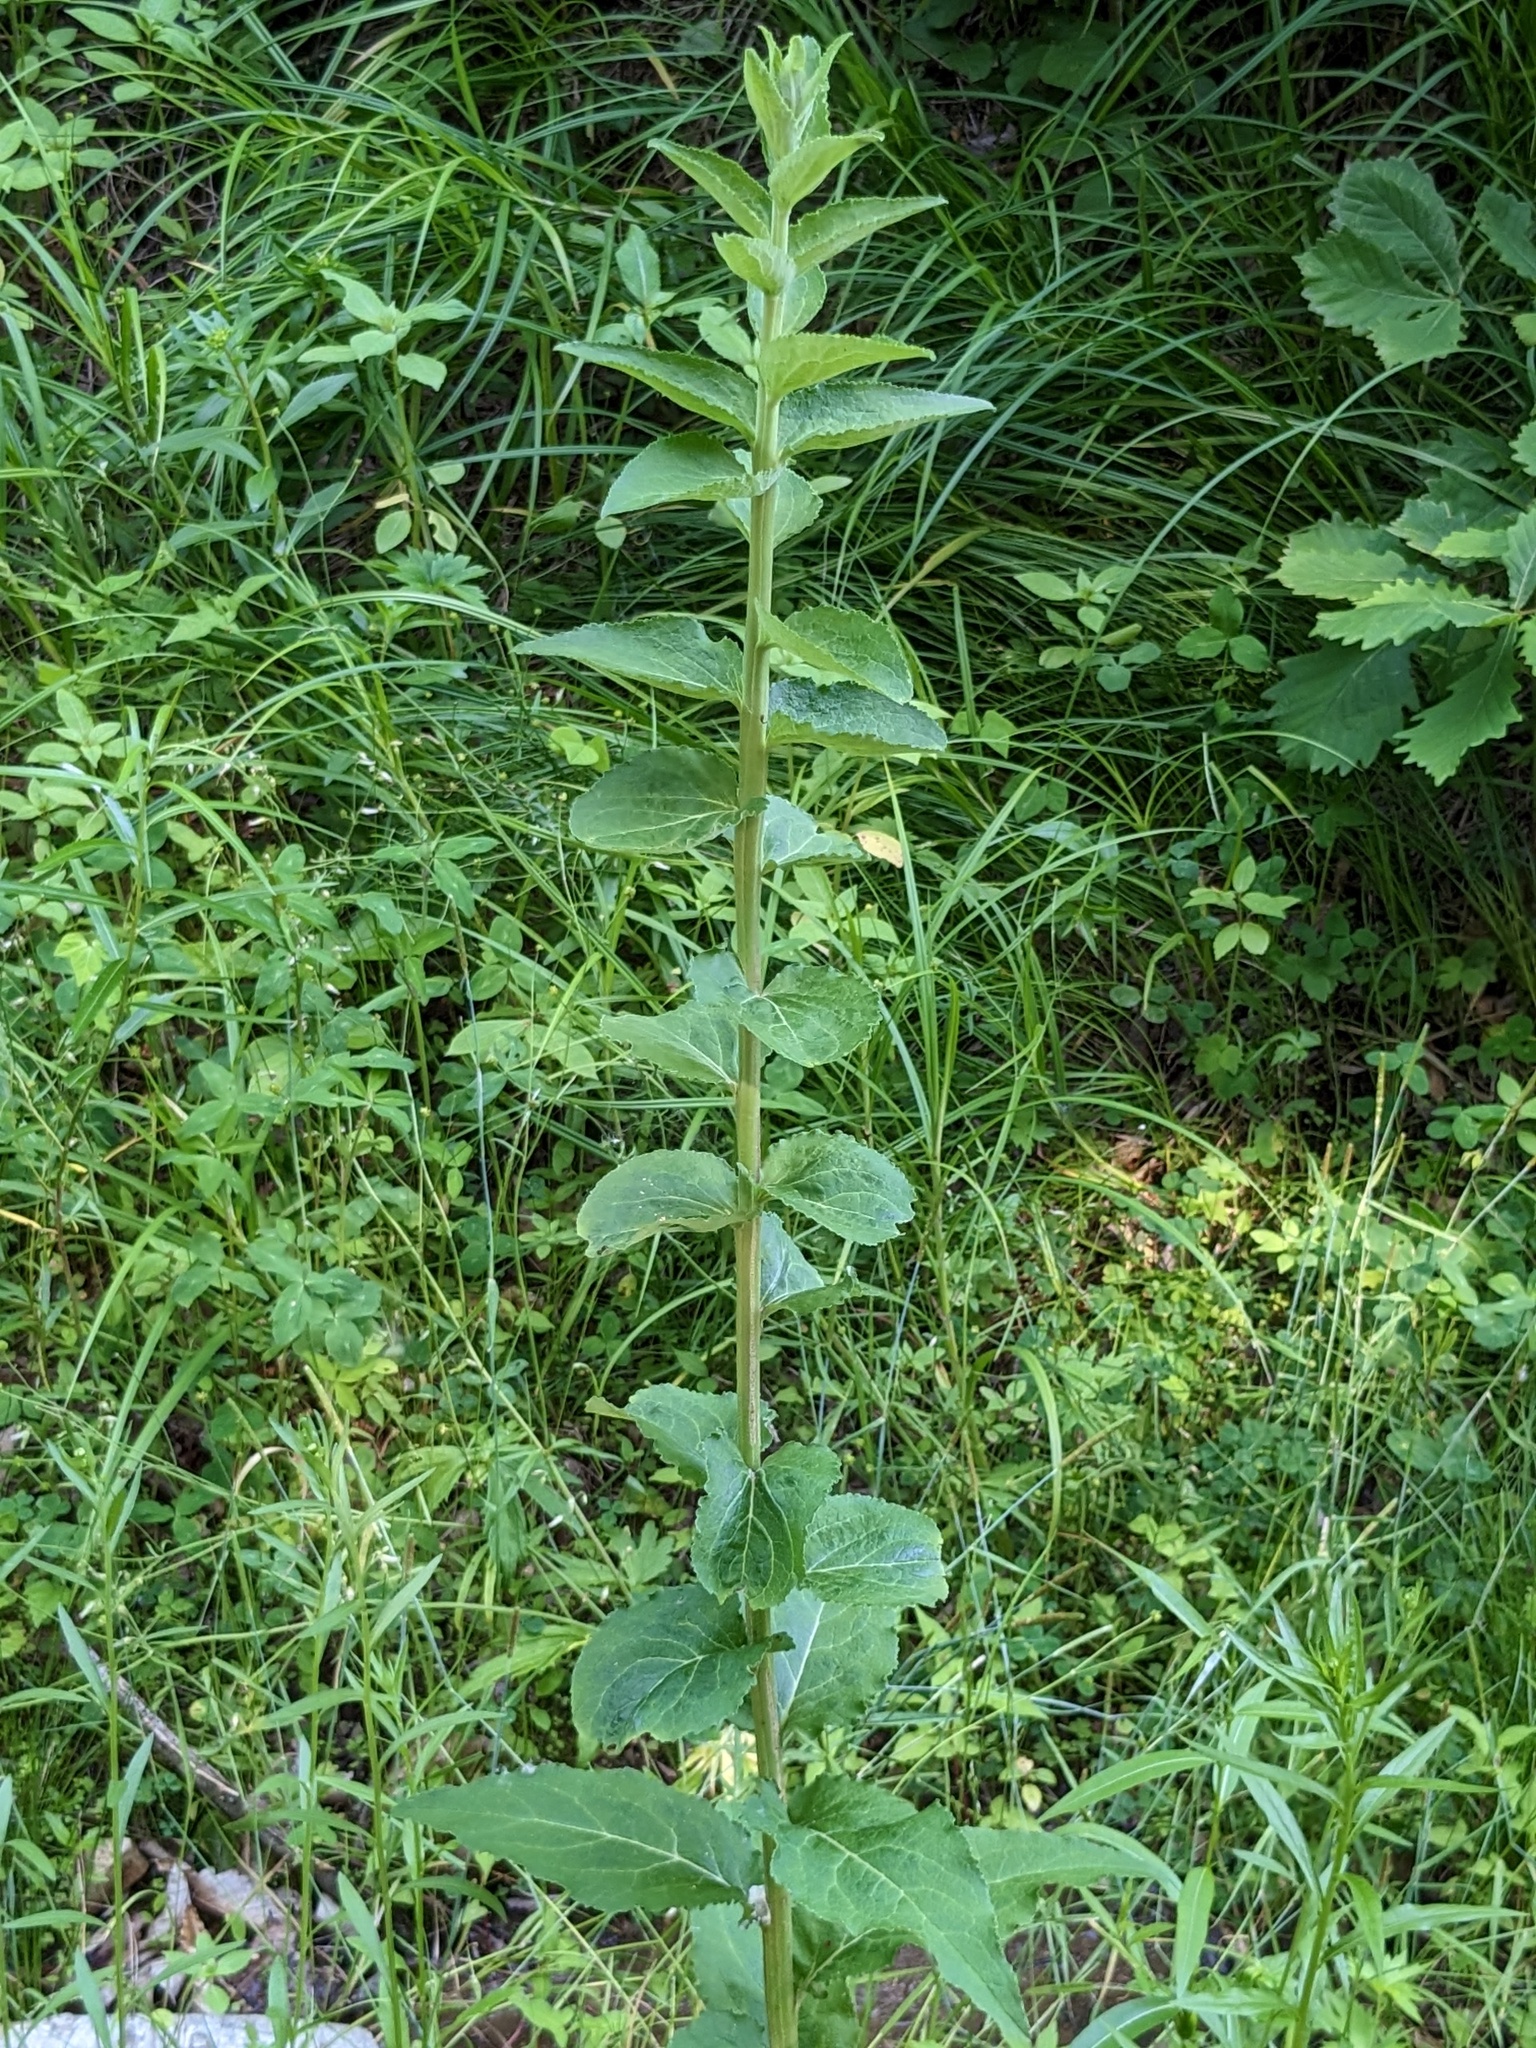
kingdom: Plantae
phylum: Tracheophyta
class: Magnoliopsida
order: Asterales
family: Campanulaceae
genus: Campanula
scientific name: Campanula glomerata
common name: Clustered bellflower
